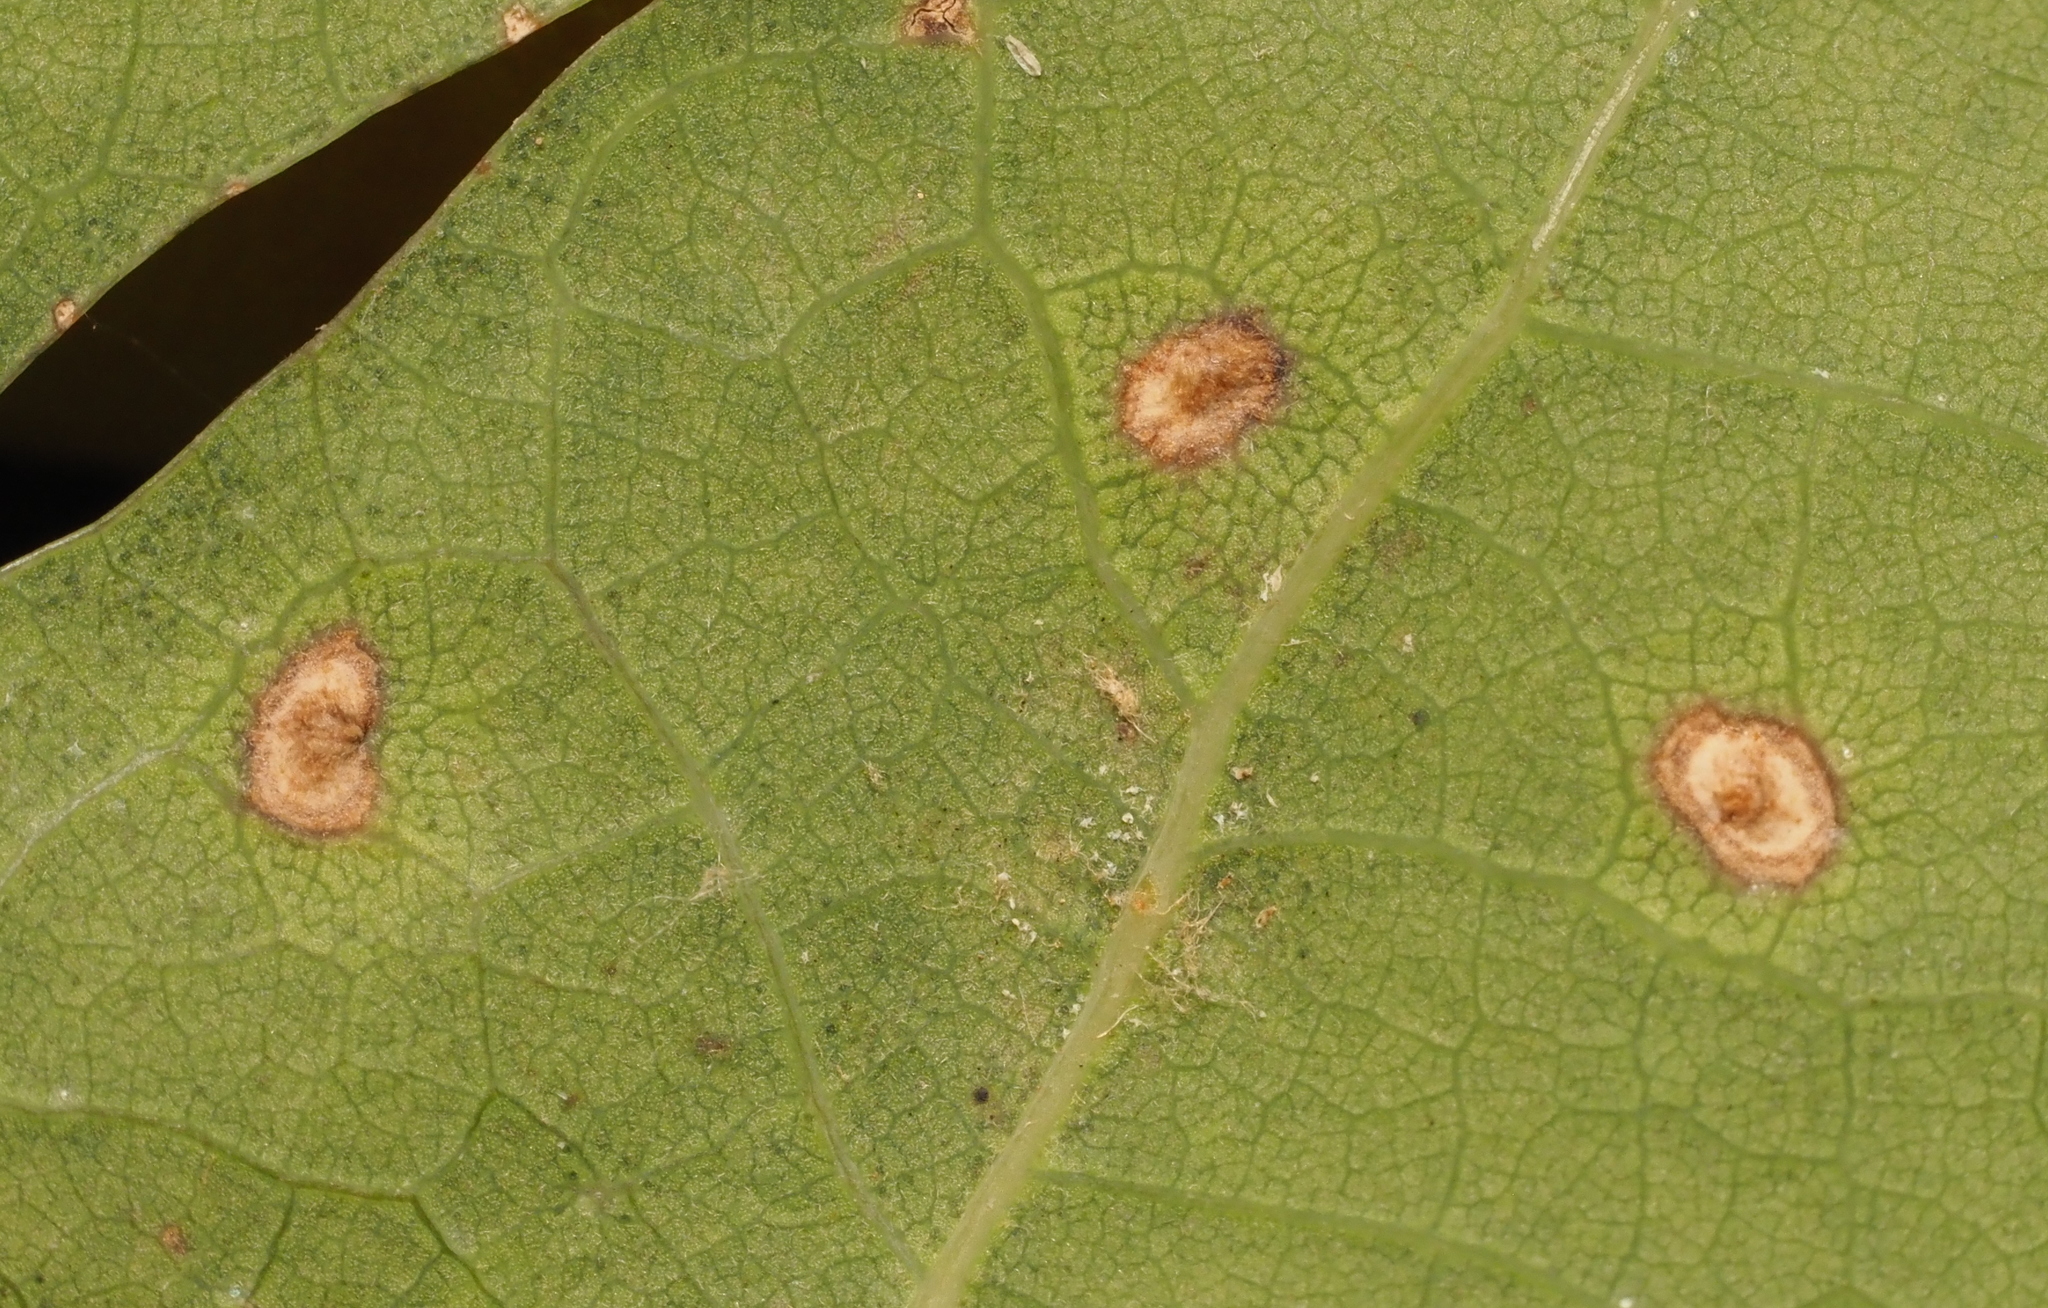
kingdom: Animalia
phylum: Arthropoda
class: Insecta
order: Hymenoptera
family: Cynipidae
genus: Neuroterus
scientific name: Neuroterus quercusverrucarum
